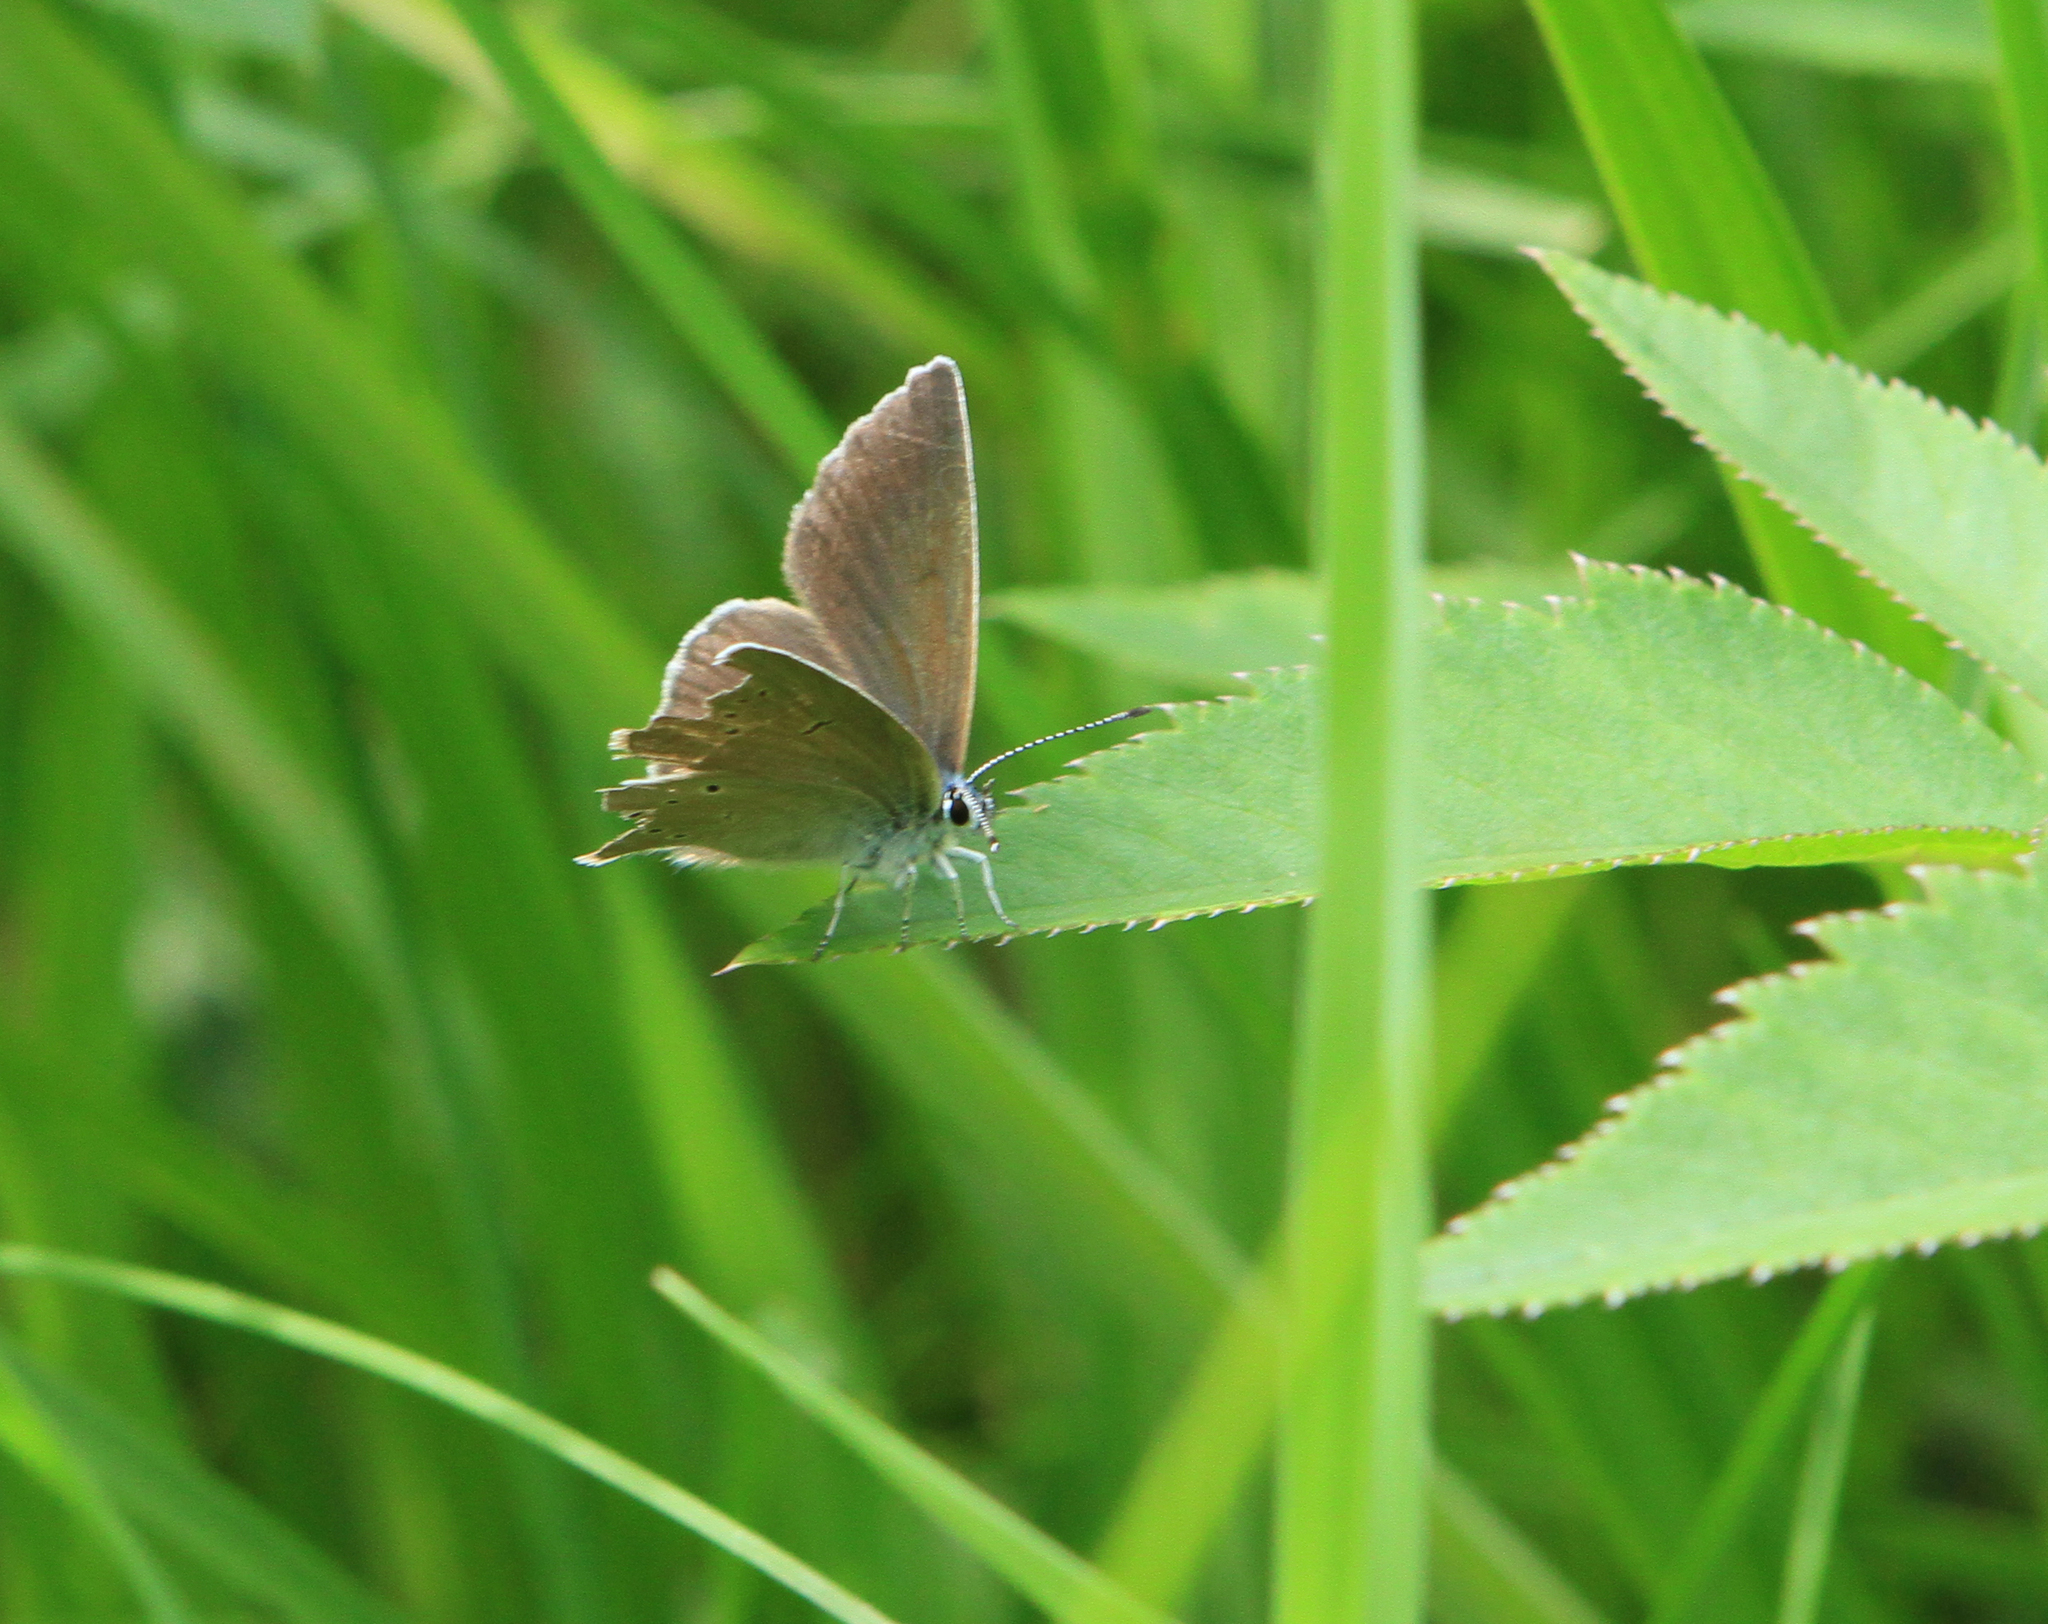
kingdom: Animalia
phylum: Arthropoda
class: Insecta
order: Lepidoptera
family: Lycaenidae
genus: Cyaniris
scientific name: Cyaniris semiargus
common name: Mazarine blue
